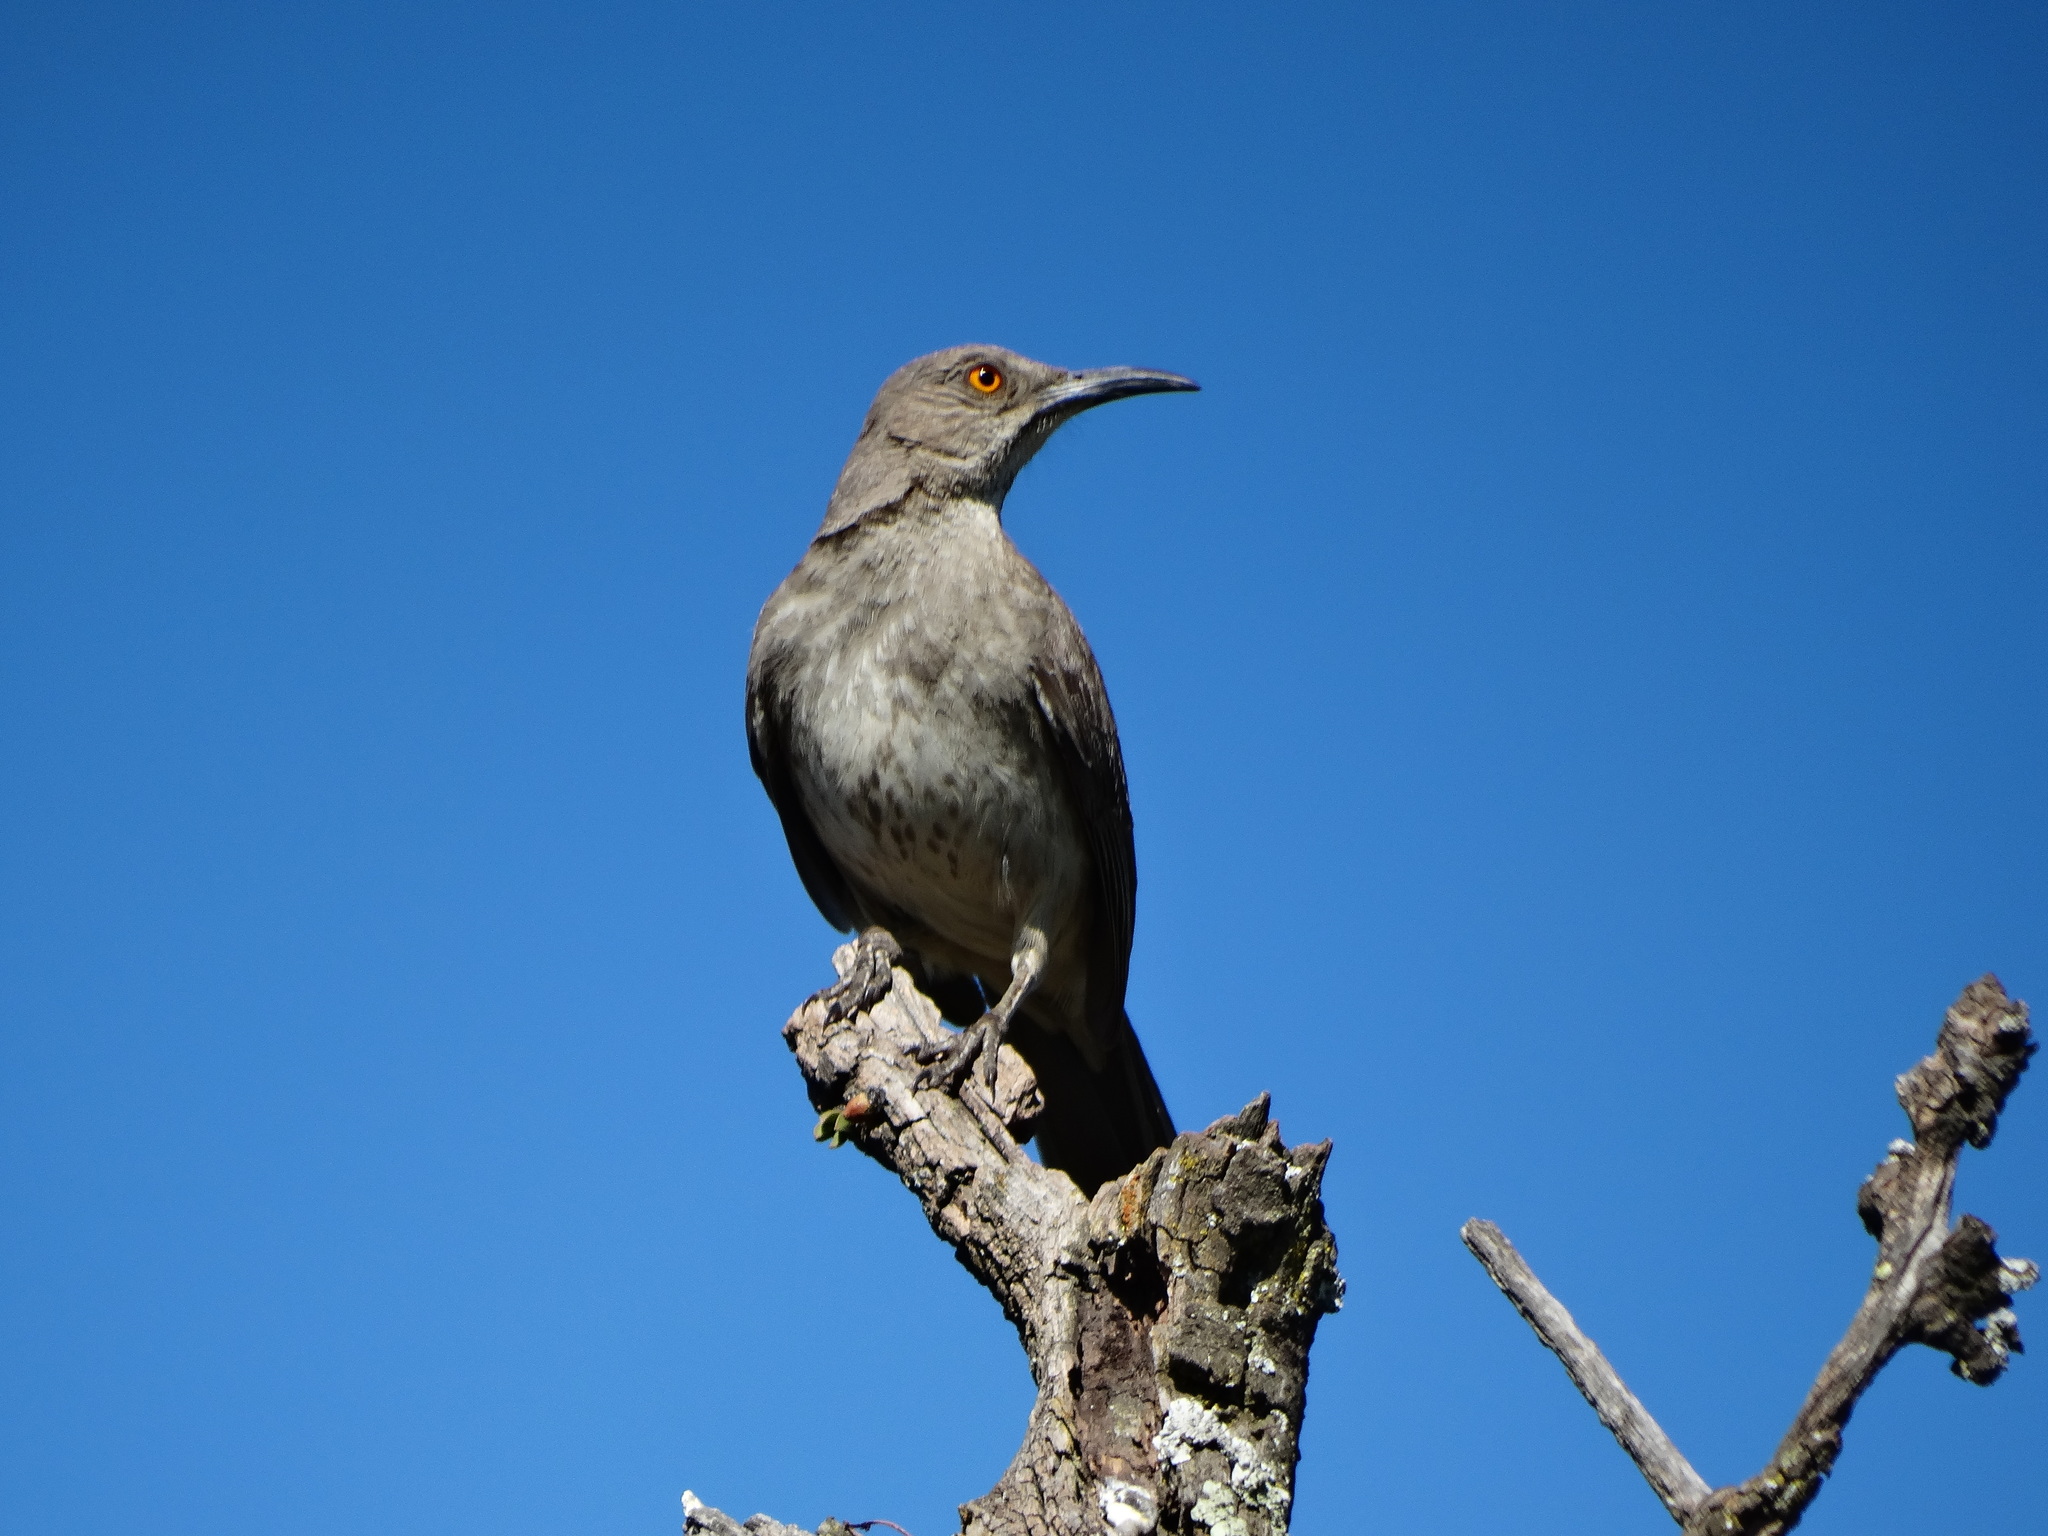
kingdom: Animalia
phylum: Chordata
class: Aves
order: Passeriformes
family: Mimidae
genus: Toxostoma
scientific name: Toxostoma curvirostre
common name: Curve-billed thrasher
